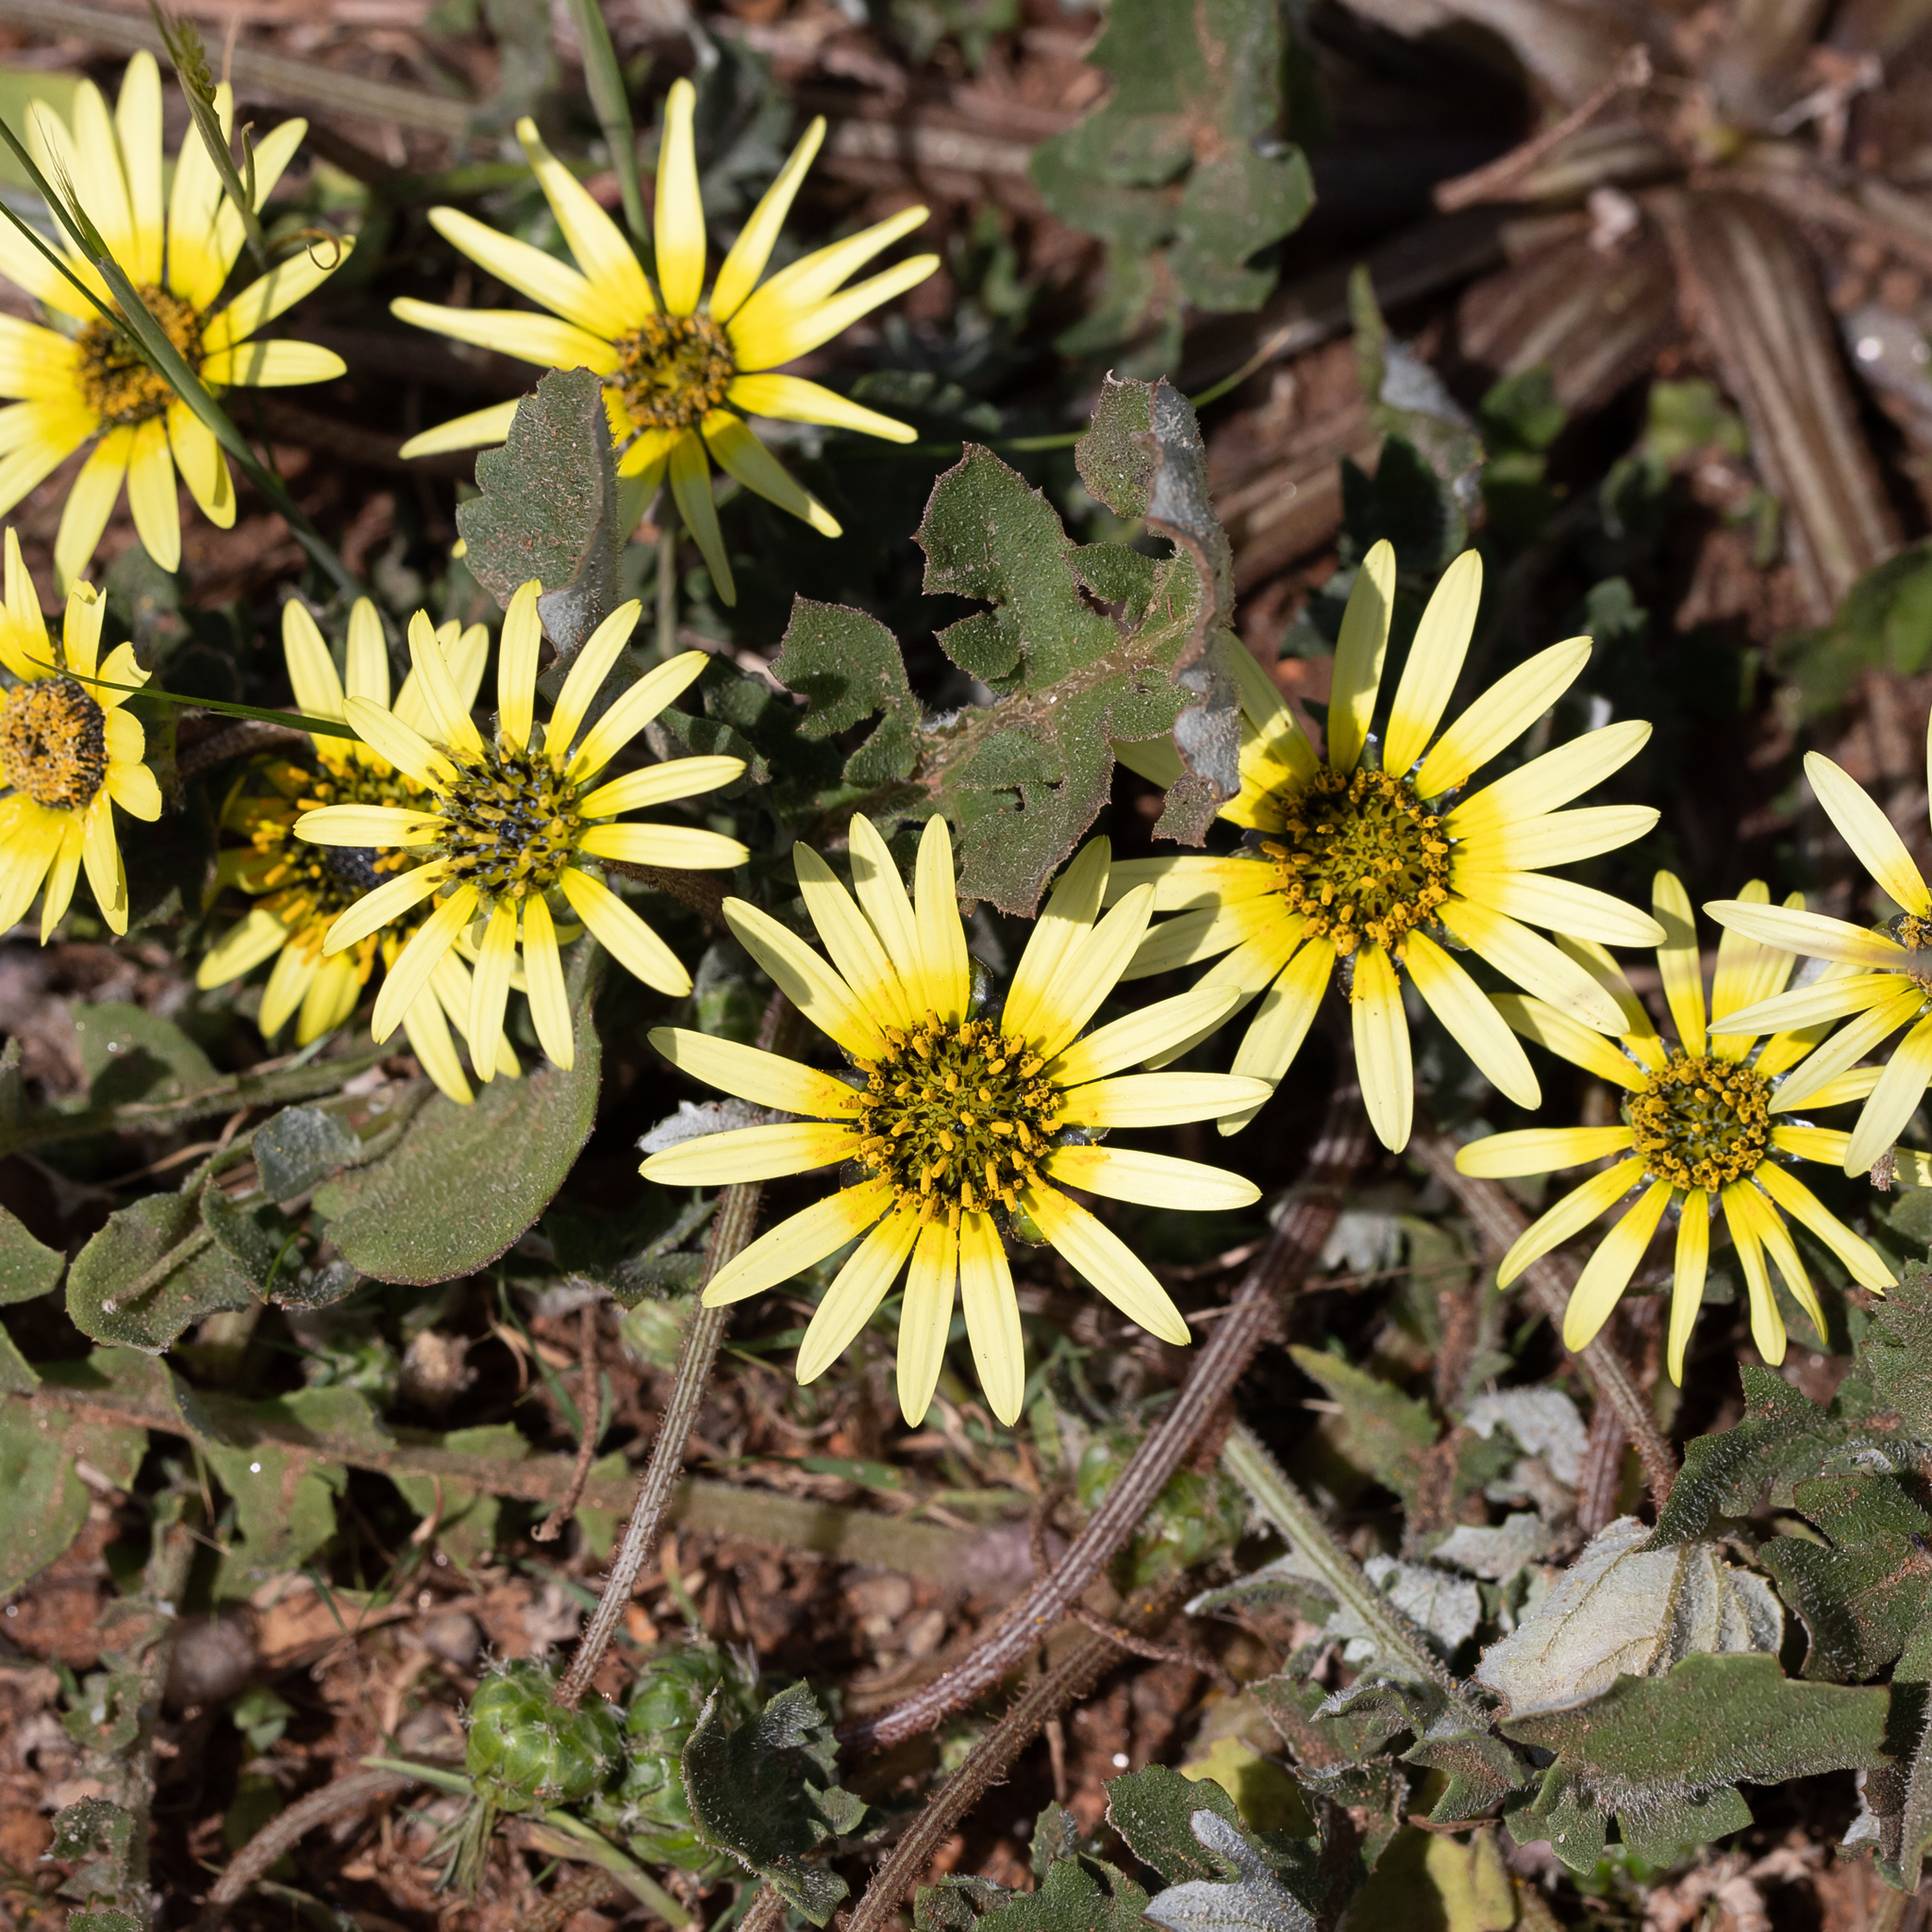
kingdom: Plantae
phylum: Tracheophyta
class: Magnoliopsida
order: Asterales
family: Asteraceae
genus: Arctotheca
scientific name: Arctotheca calendula
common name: Capeweed
